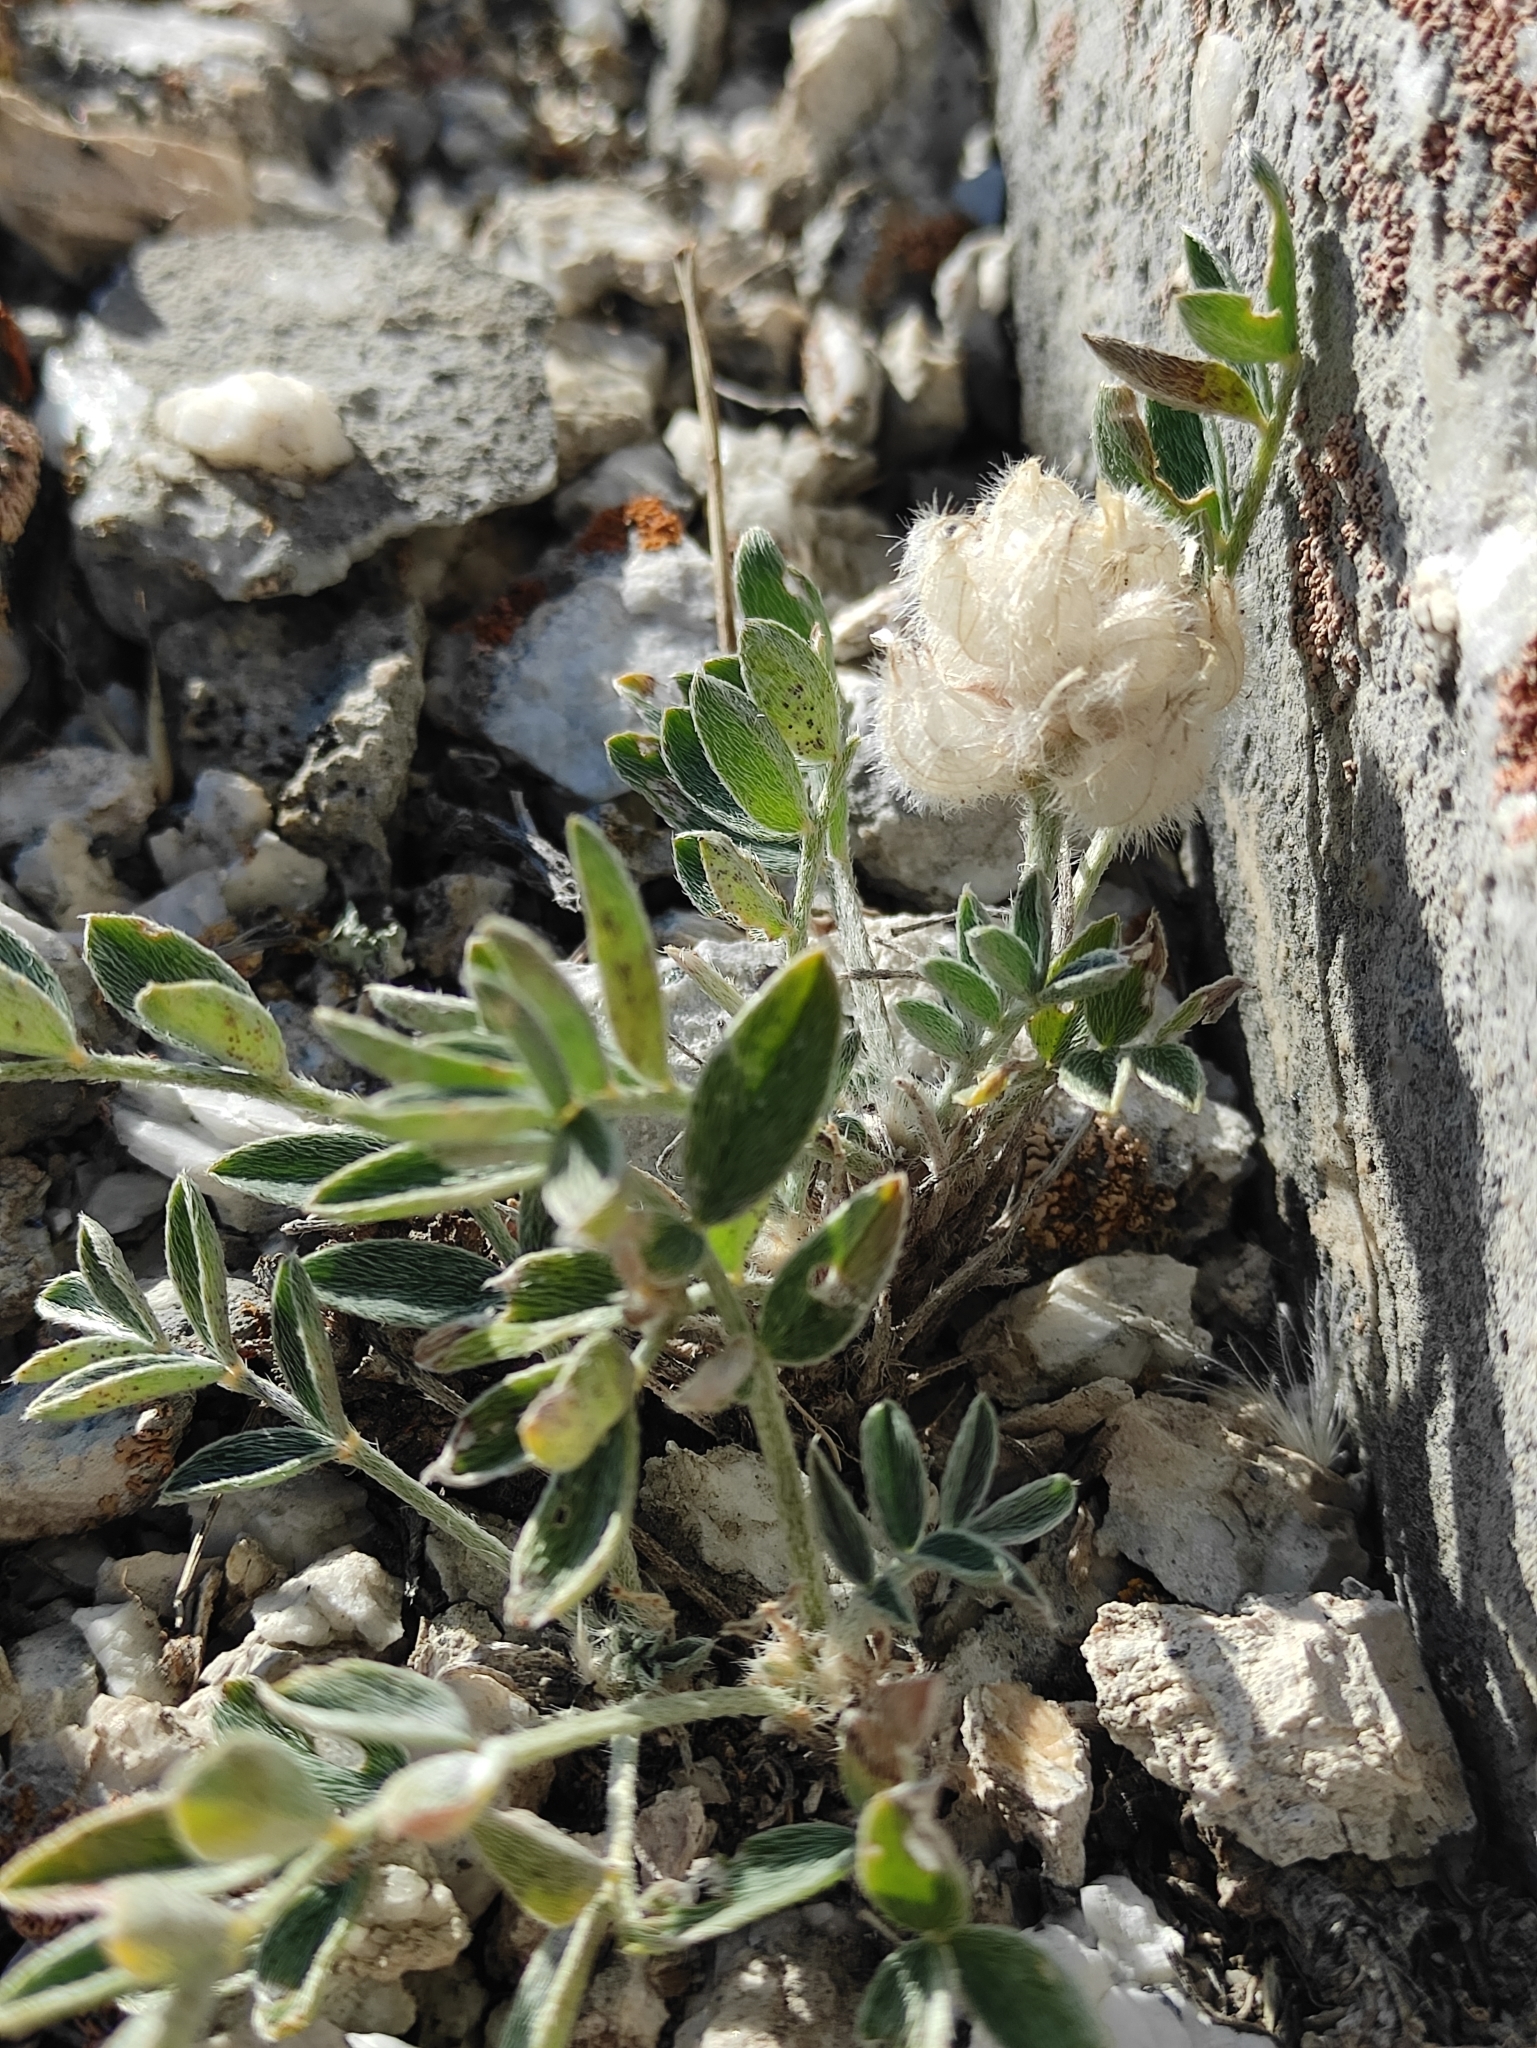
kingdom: Plantae
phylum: Tracheophyta
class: Magnoliopsida
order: Fabales
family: Fabaceae
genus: Astragalus
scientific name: Astragalus lupulinus
